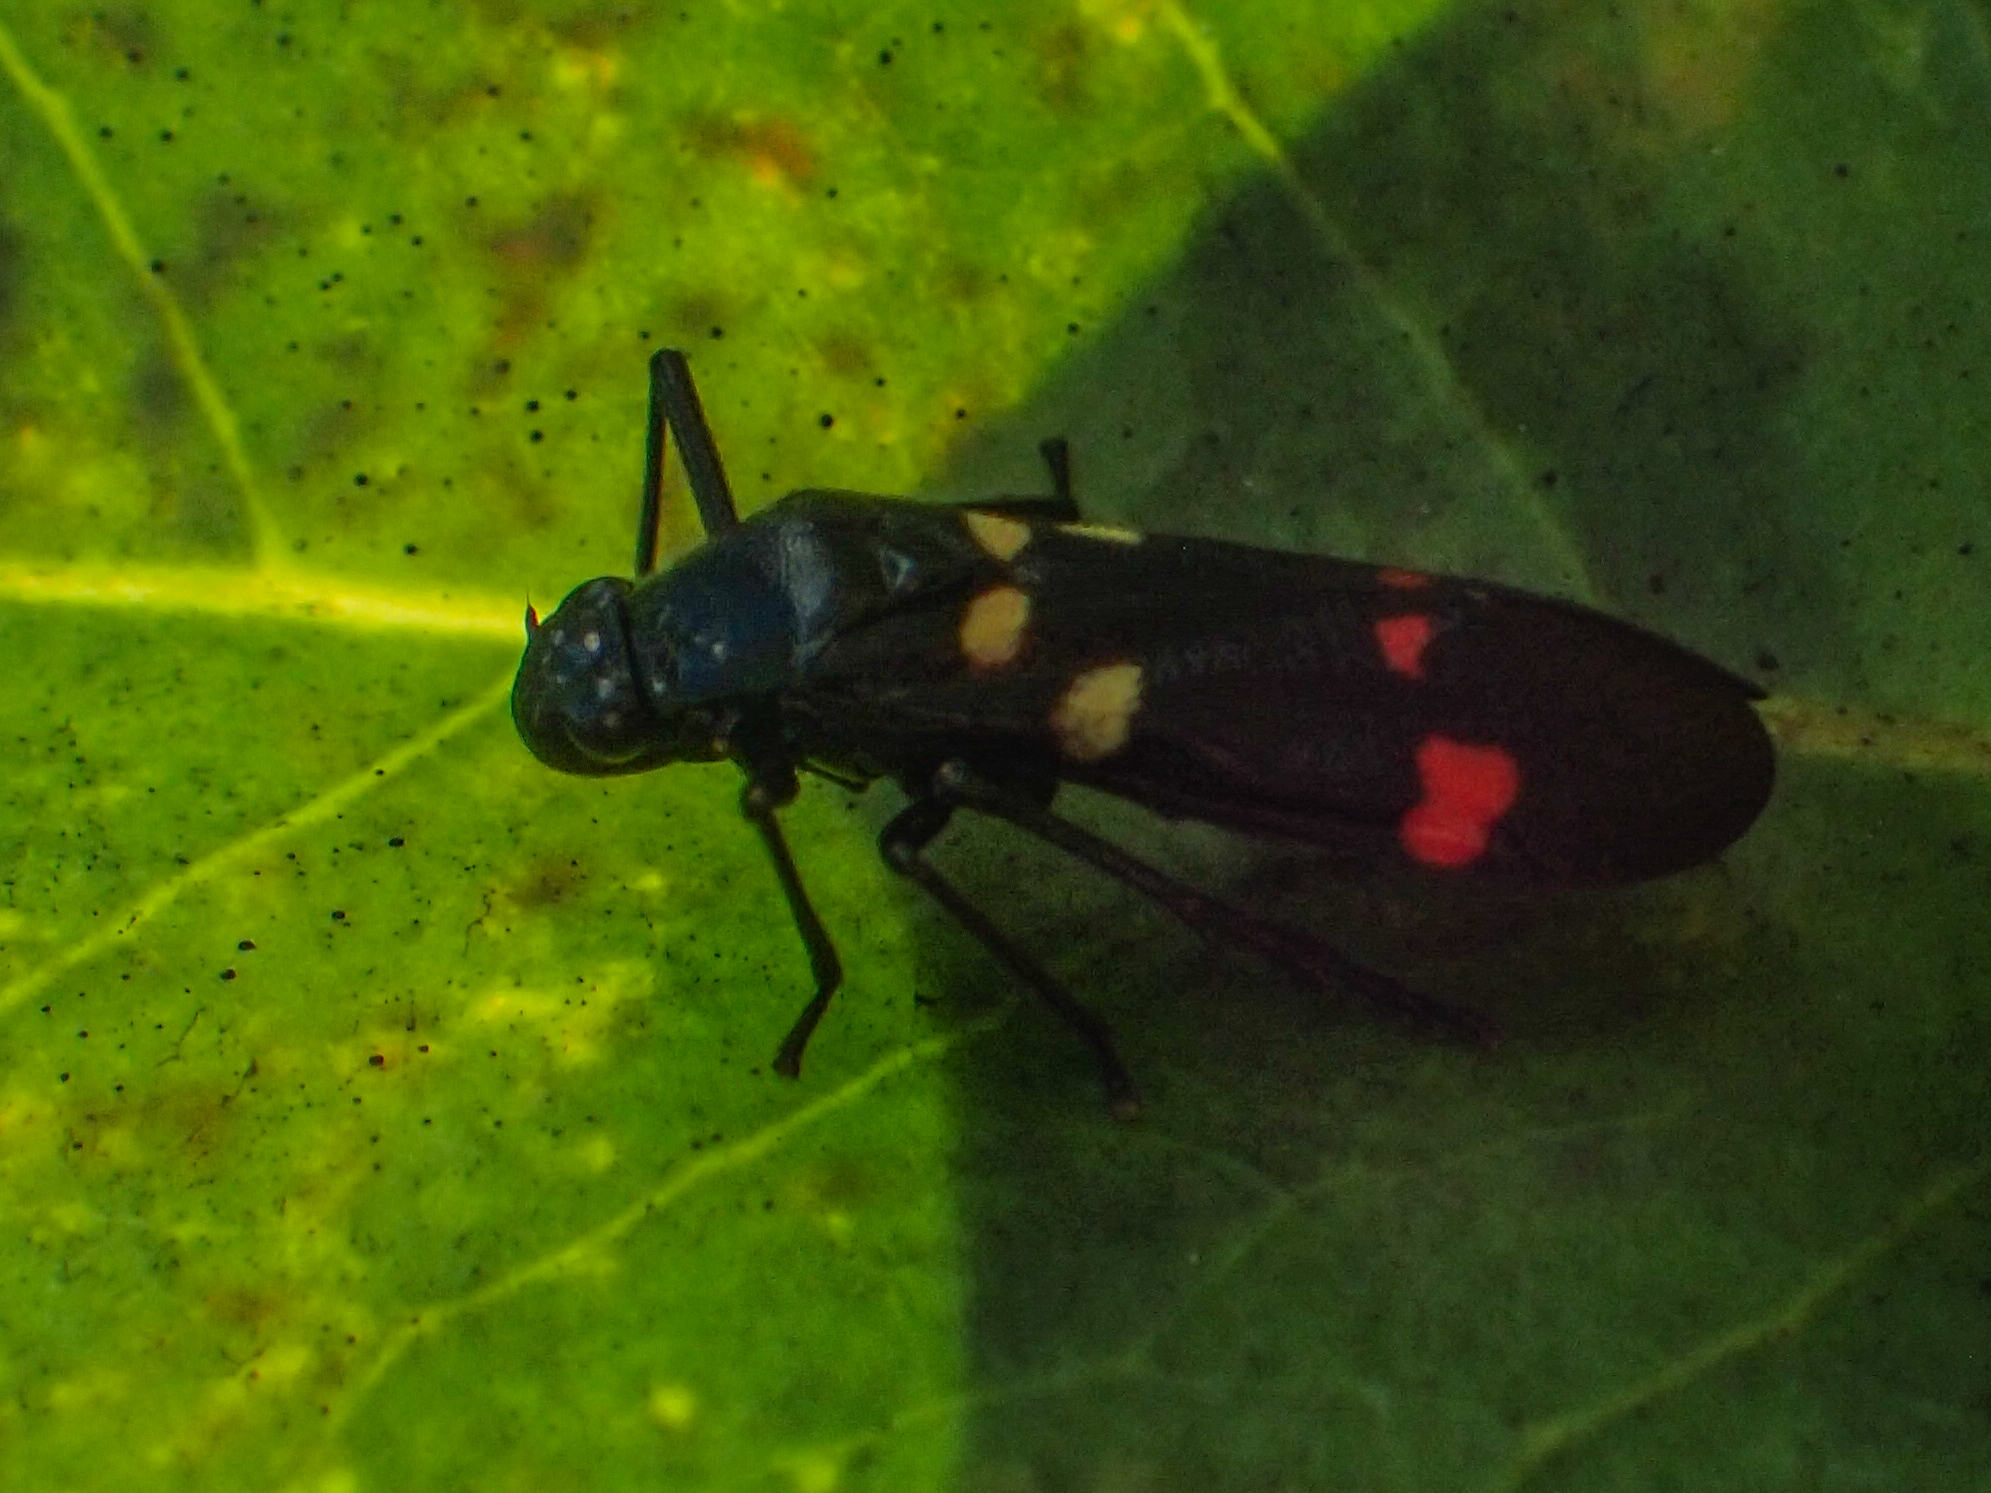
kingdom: Animalia
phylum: Arthropoda
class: Insecta
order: Hemiptera
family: Cercopidae
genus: Callitettix
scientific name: Callitettix versicolor
